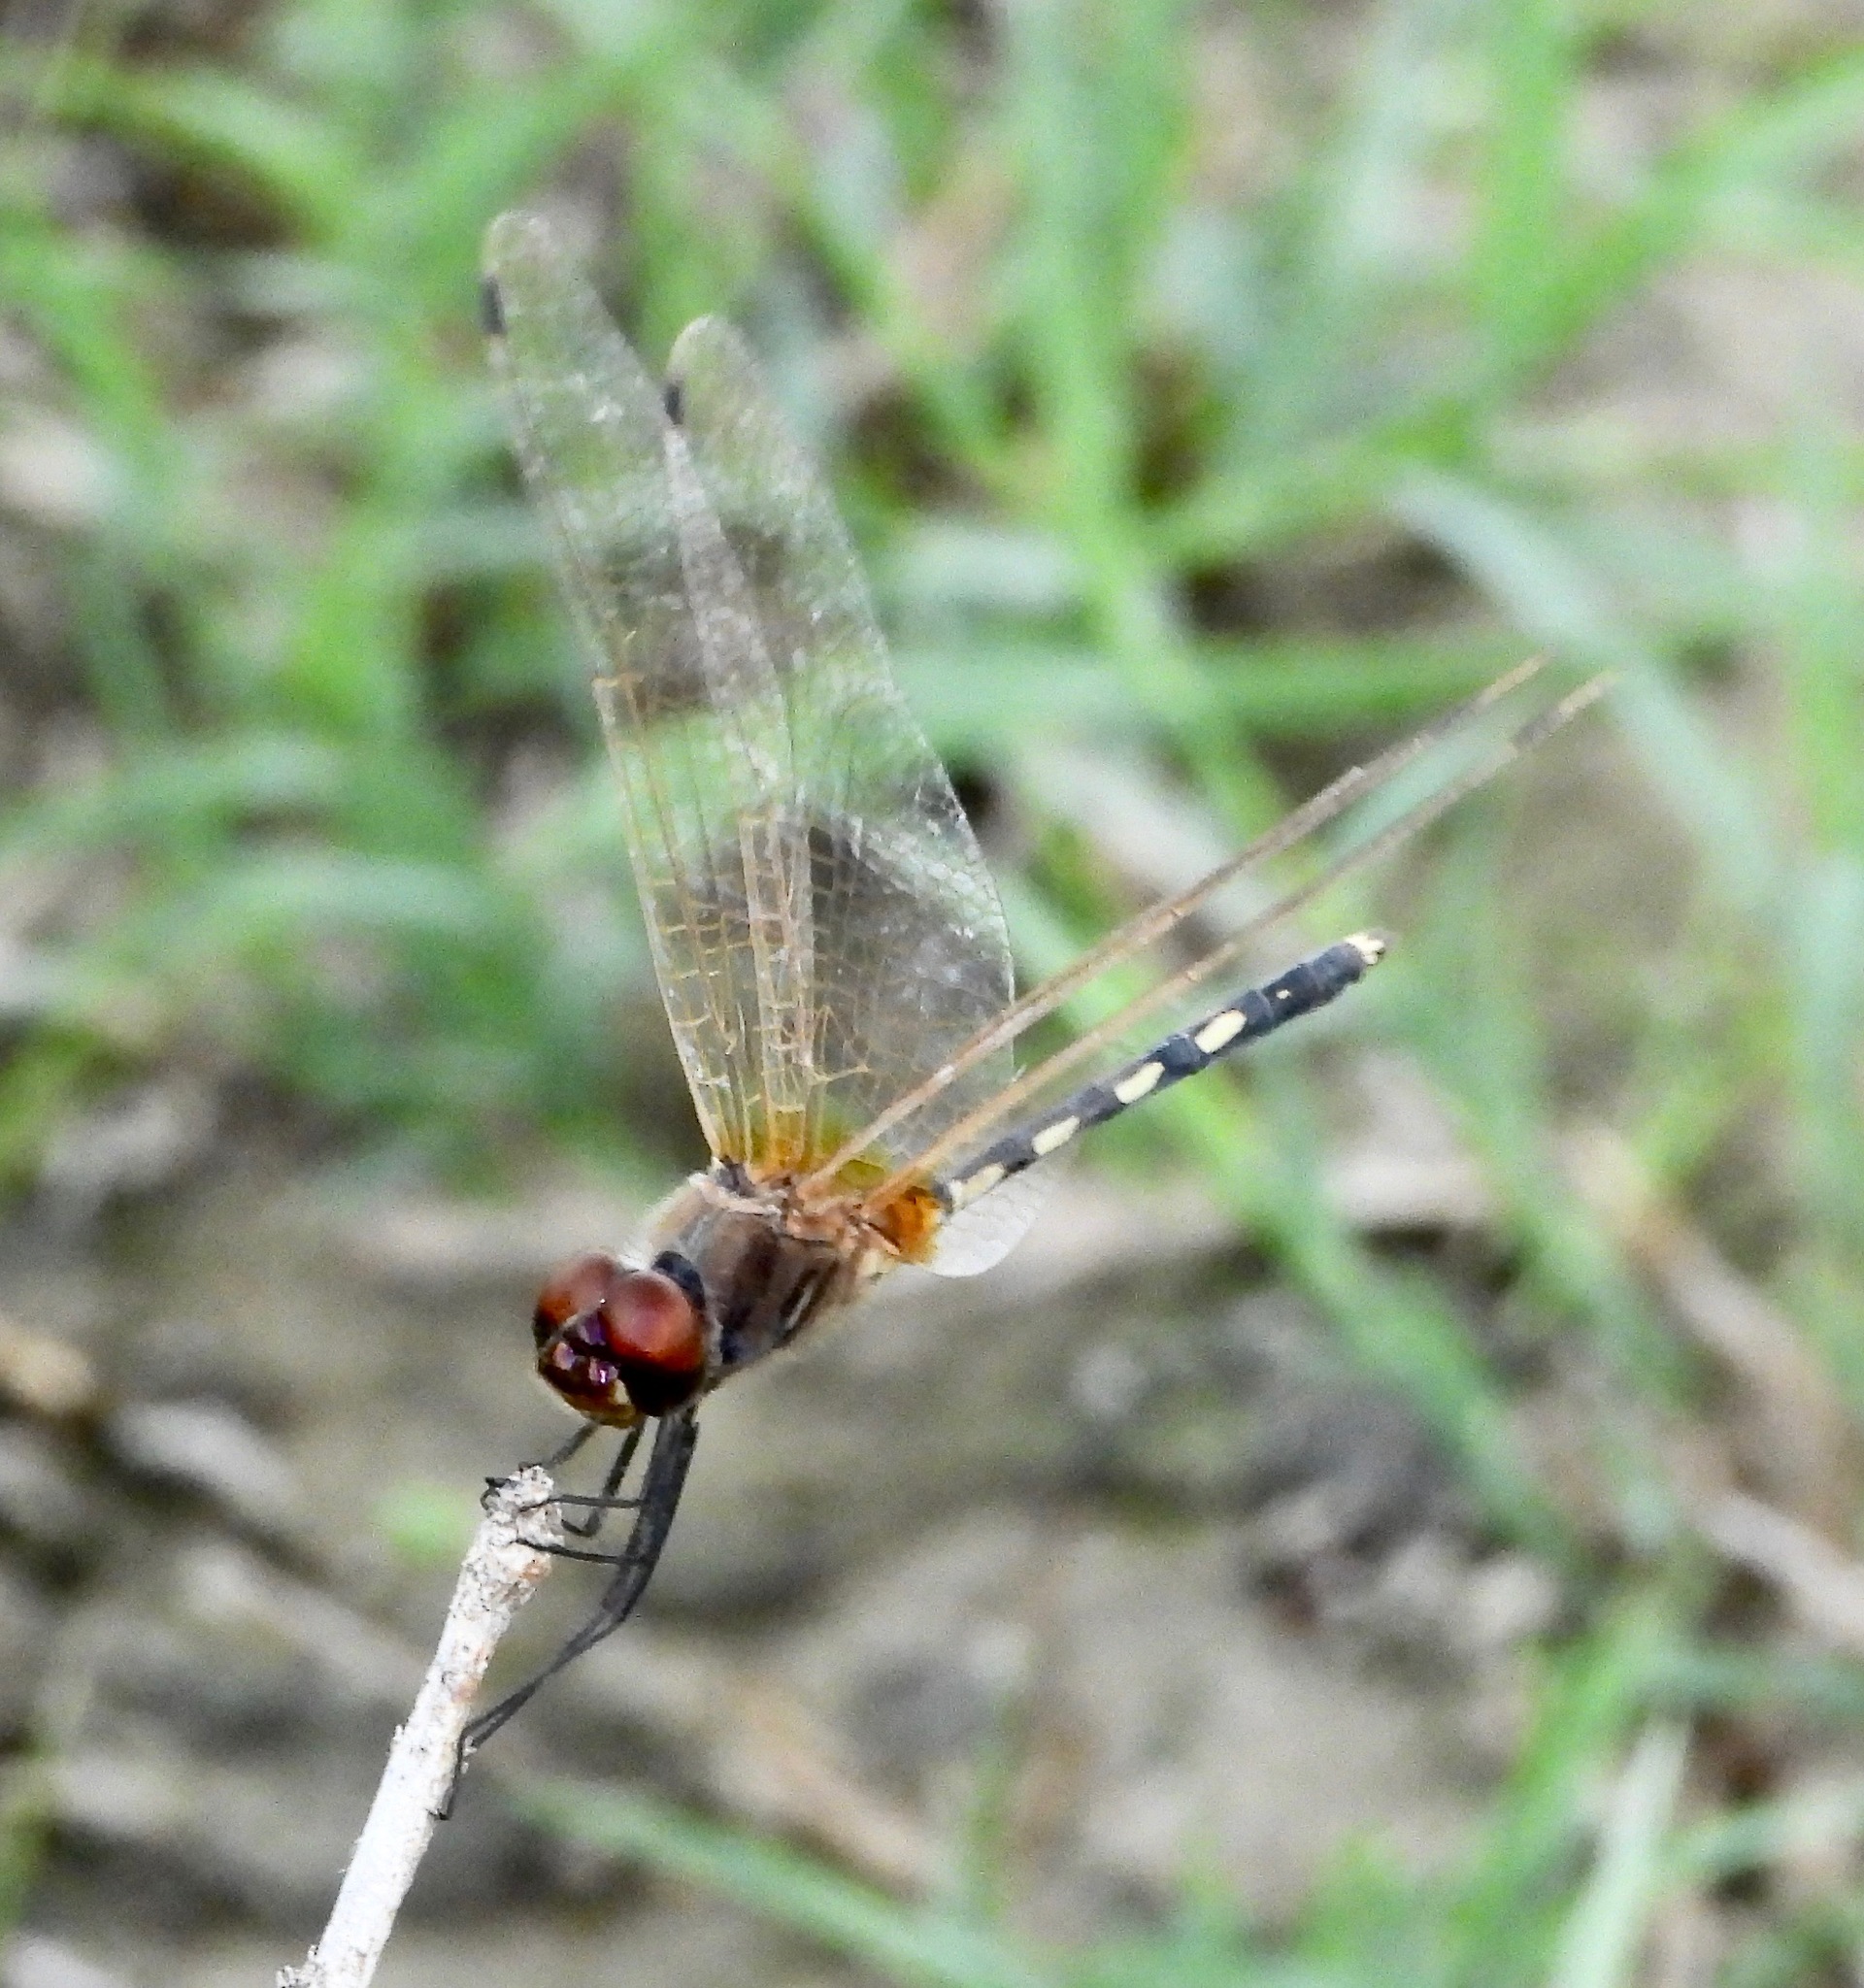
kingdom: Animalia
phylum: Arthropoda
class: Insecta
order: Odonata
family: Libellulidae
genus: Trithemis
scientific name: Trithemis pallidinervis
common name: Dancing dropwing
